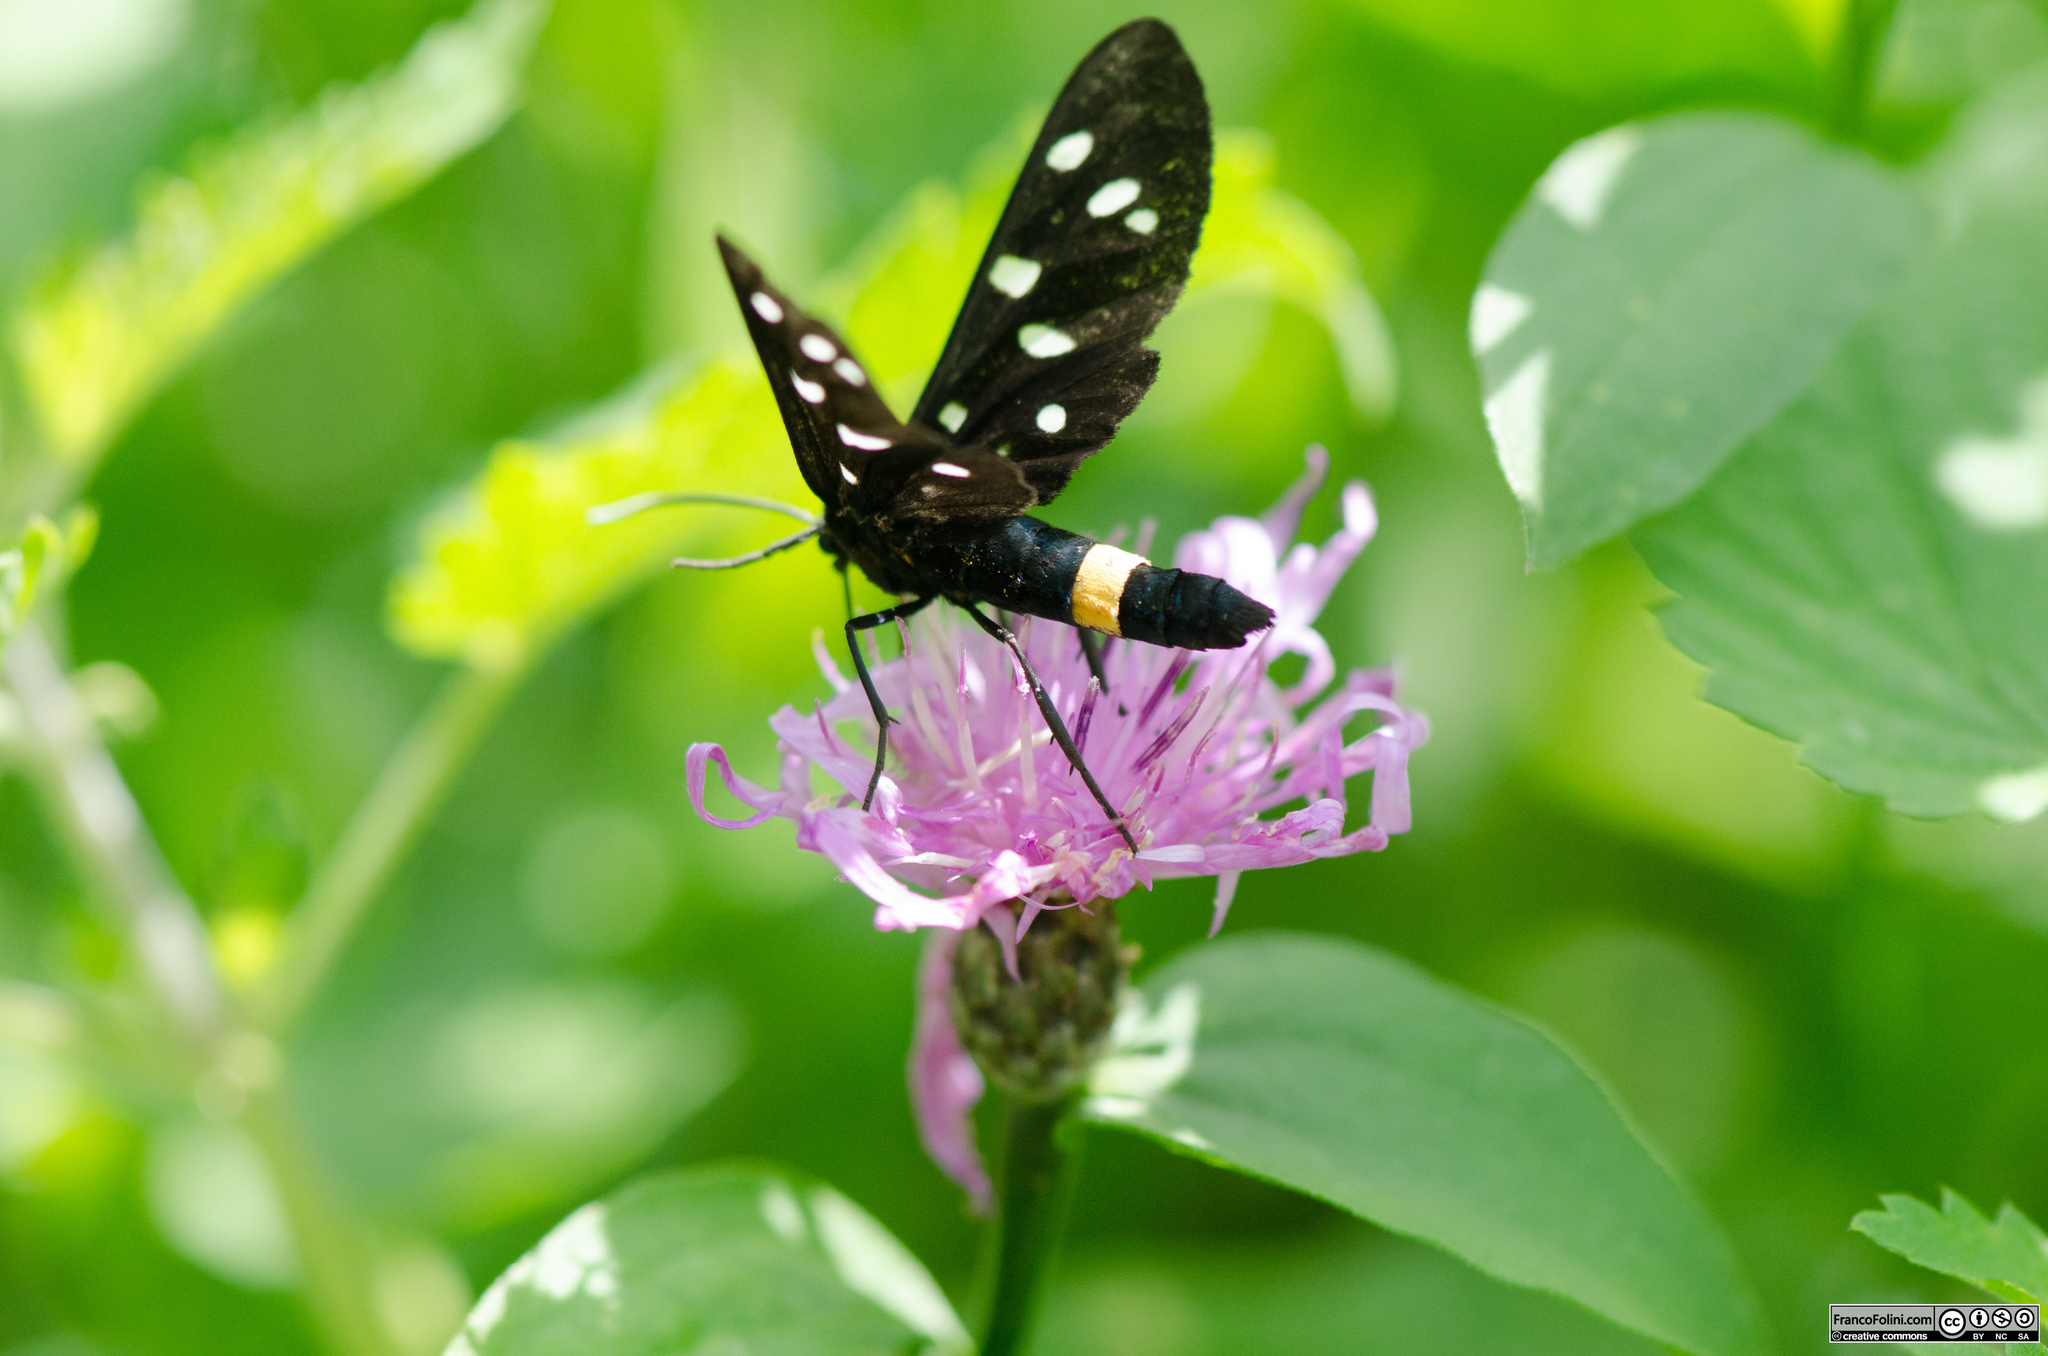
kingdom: Animalia
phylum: Arthropoda
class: Insecta
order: Lepidoptera
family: Erebidae
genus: Amata
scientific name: Amata phegea
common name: Nine-spotted
